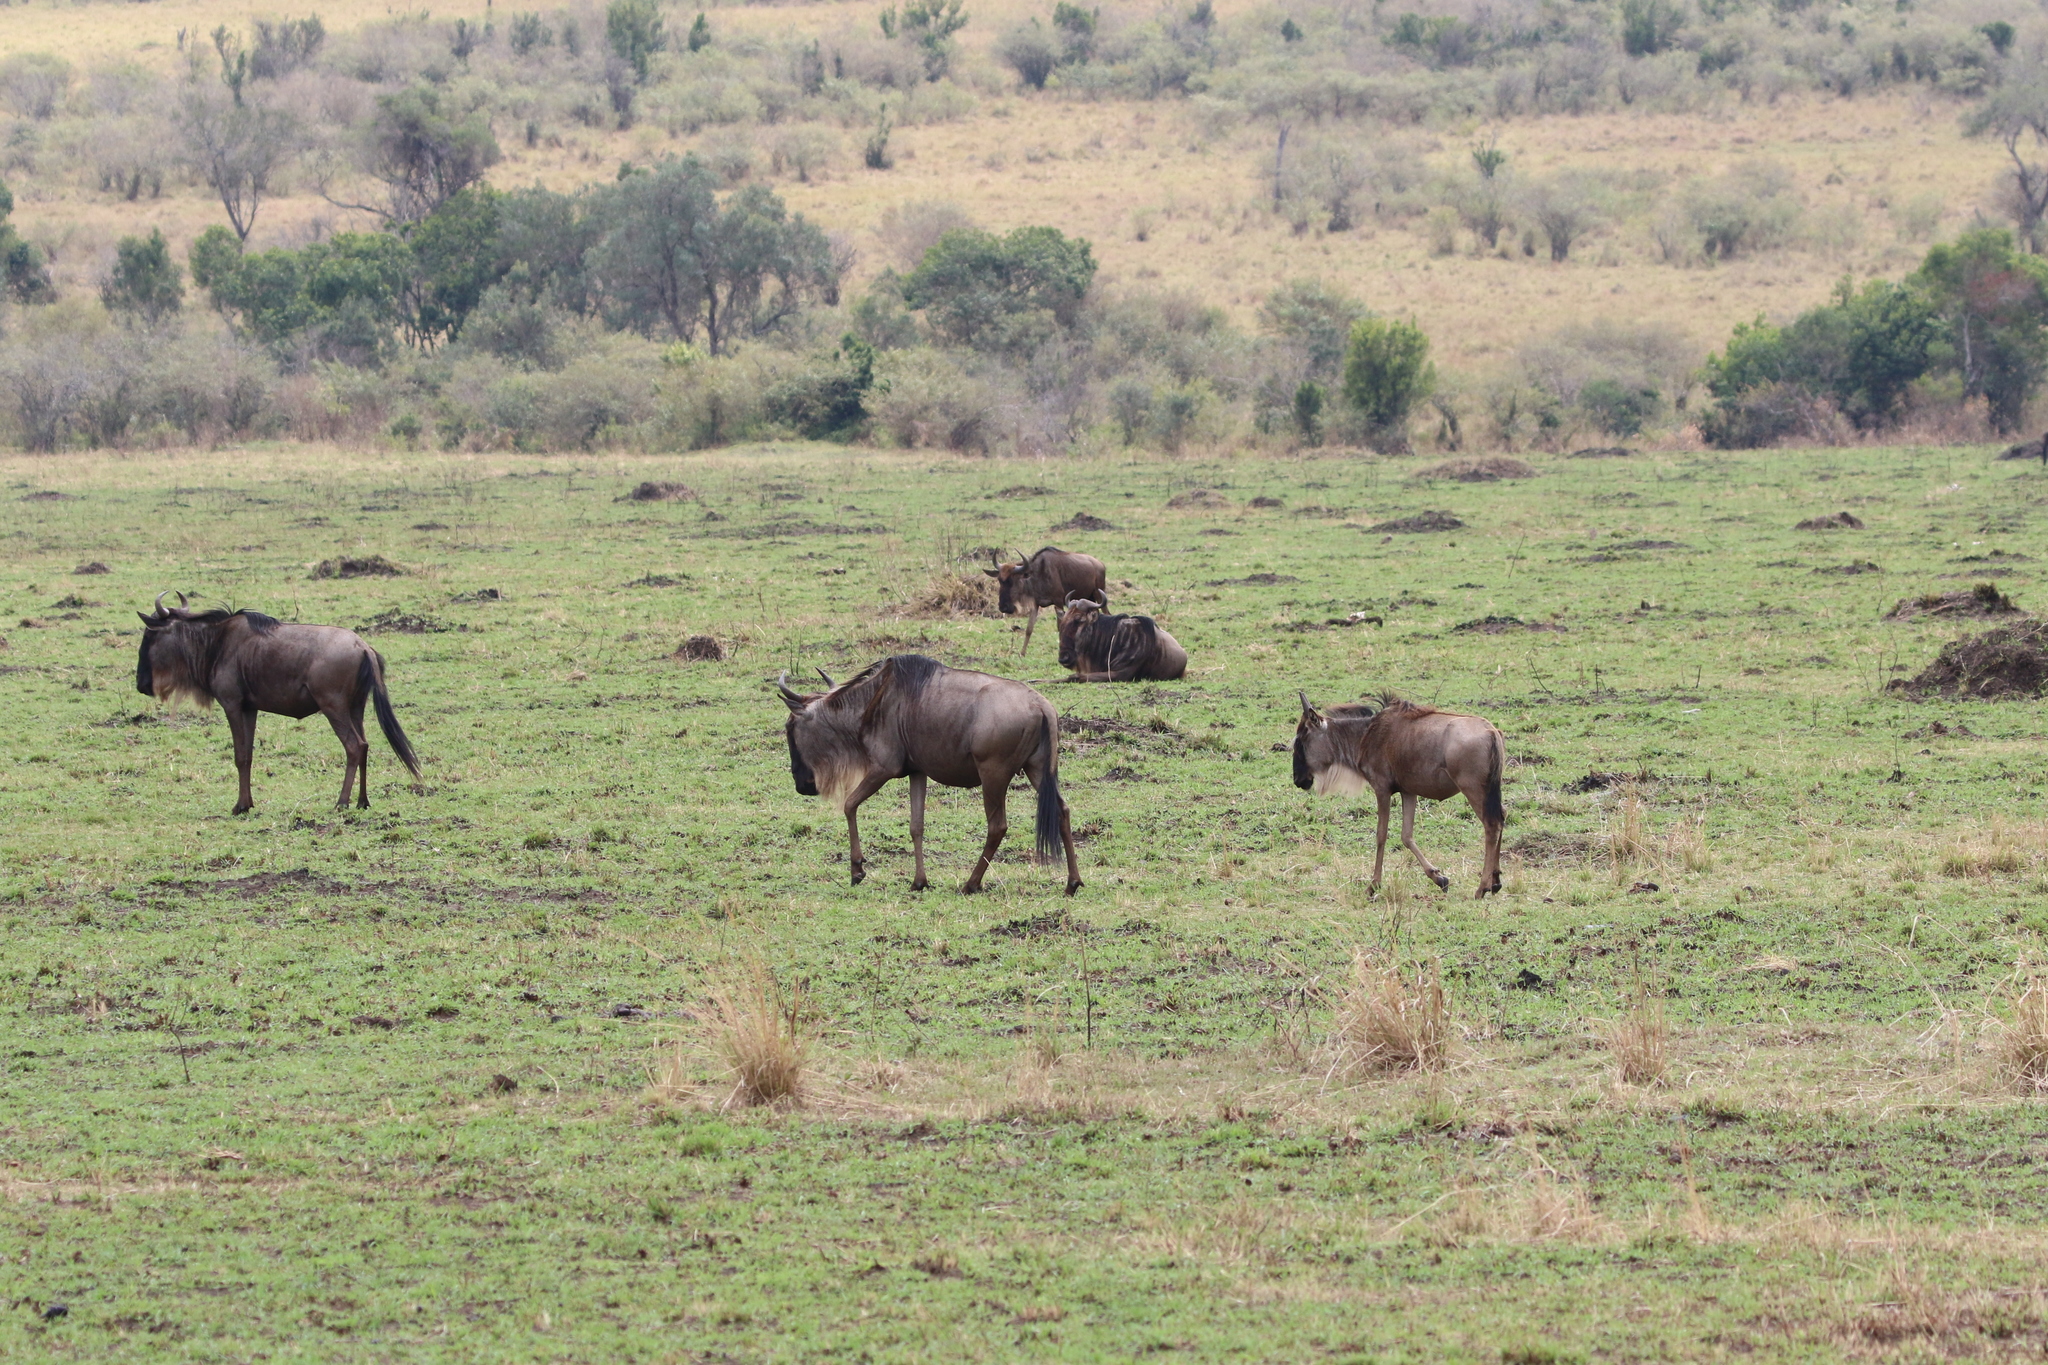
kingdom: Animalia
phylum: Chordata
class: Mammalia
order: Artiodactyla
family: Bovidae
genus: Connochaetes
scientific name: Connochaetes taurinus
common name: Blue wildebeest
